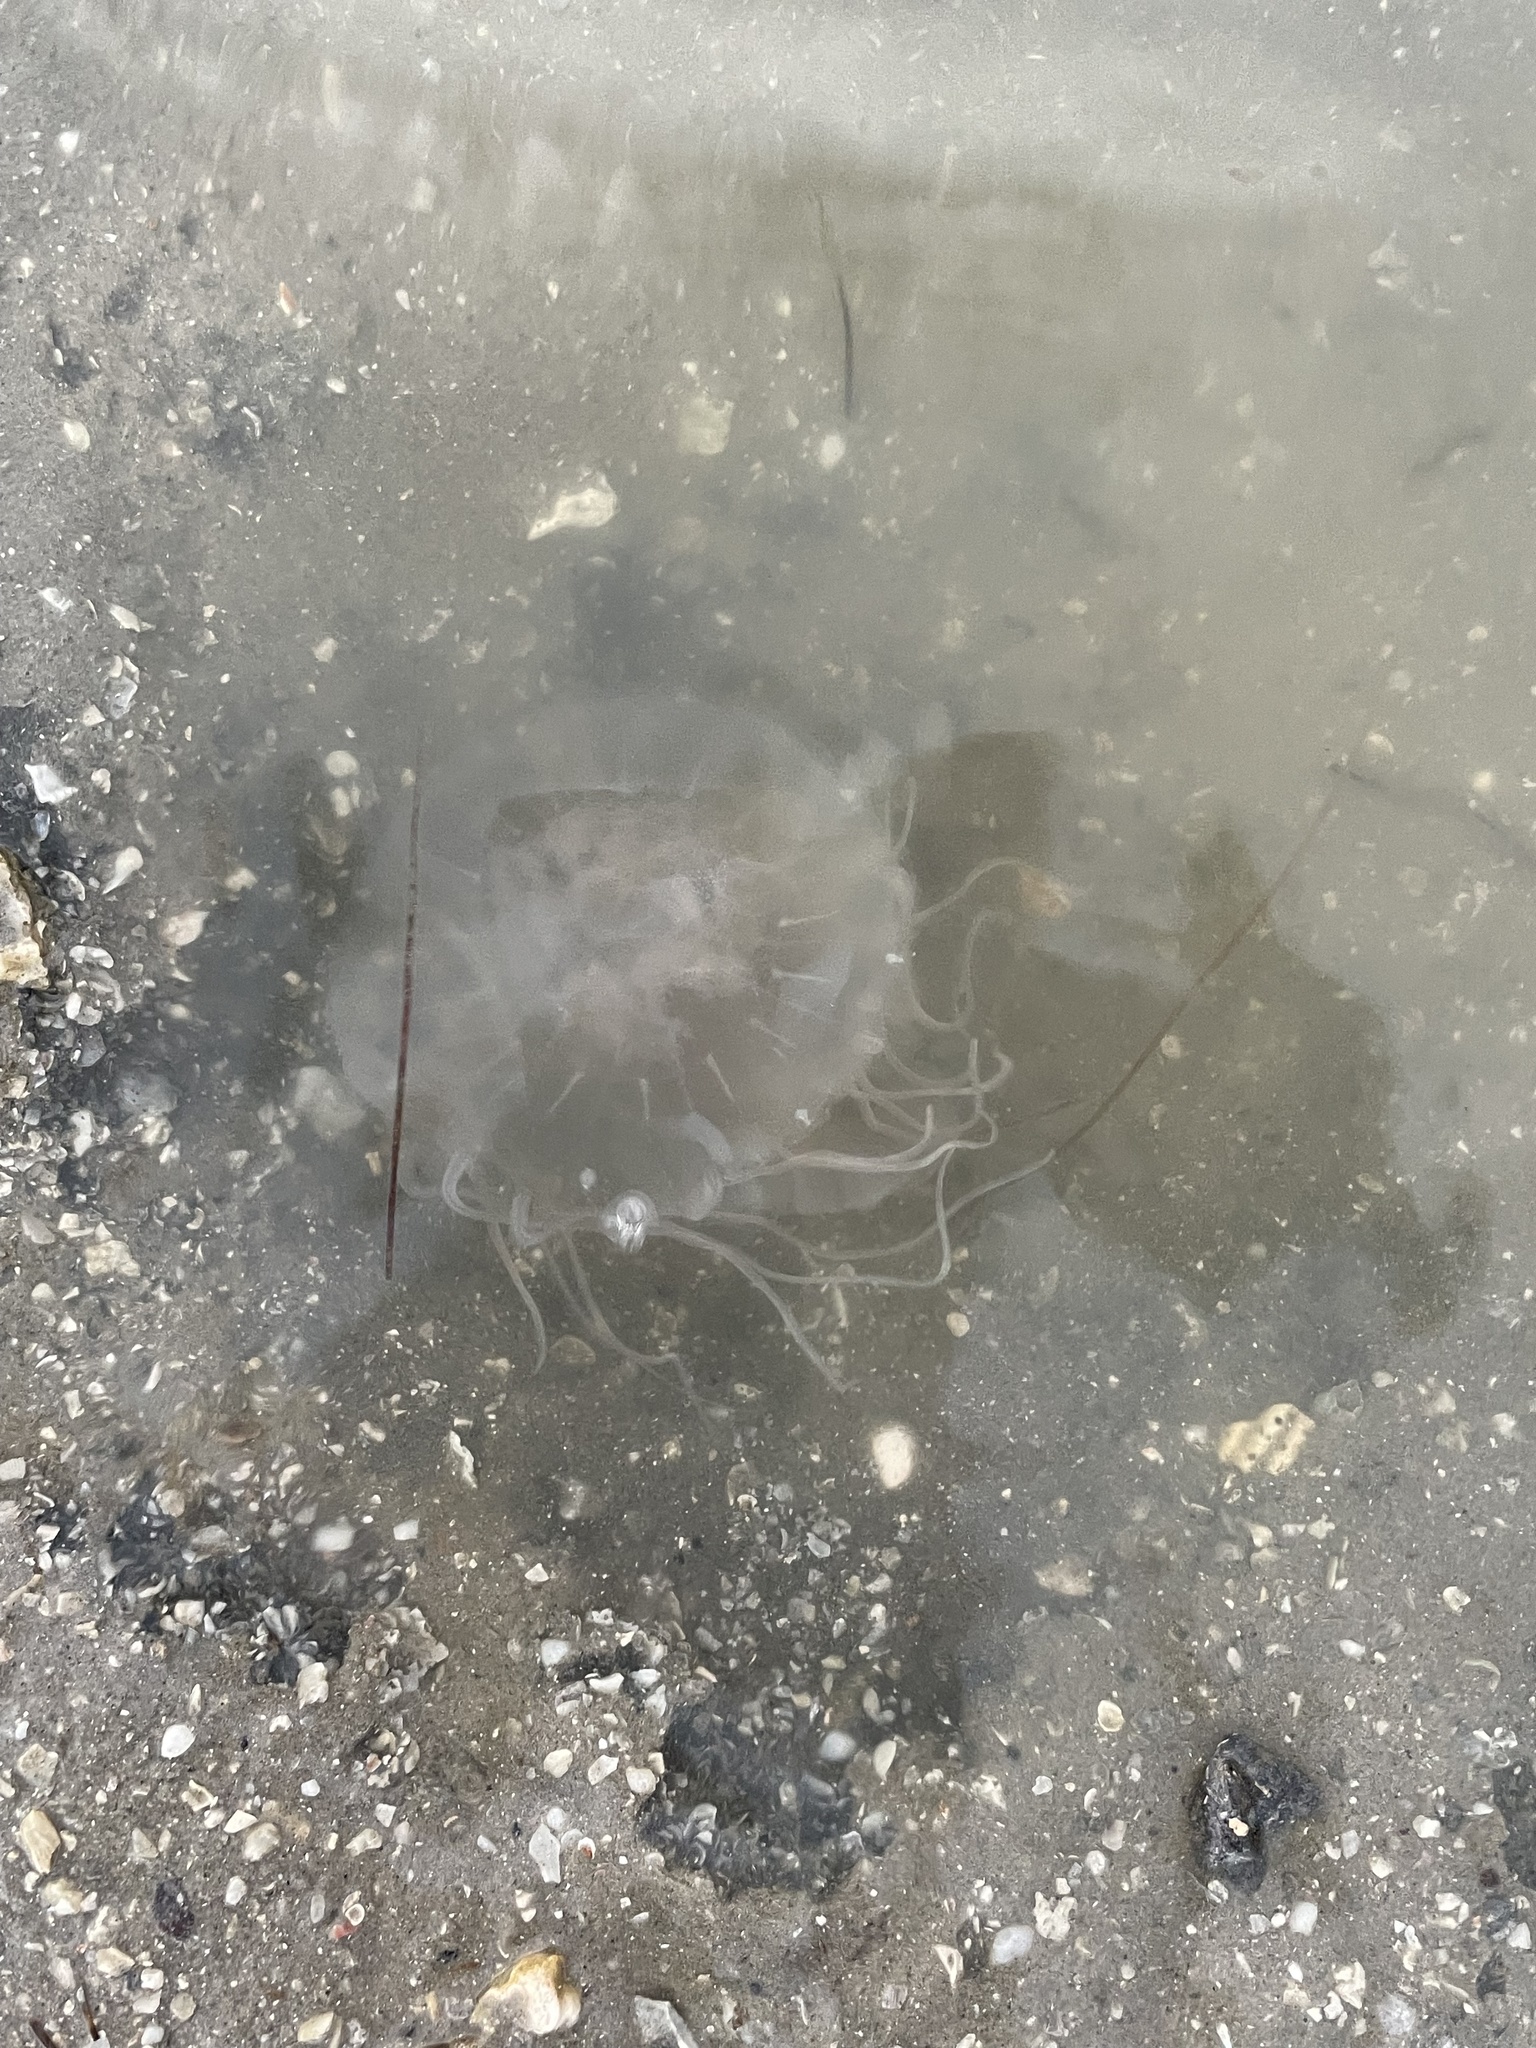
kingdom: Animalia
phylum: Cnidaria
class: Scyphozoa
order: Semaeostomeae
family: Pelagiidae
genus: Chrysaora
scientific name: Chrysaora chesapeakei
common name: Bay nettle
